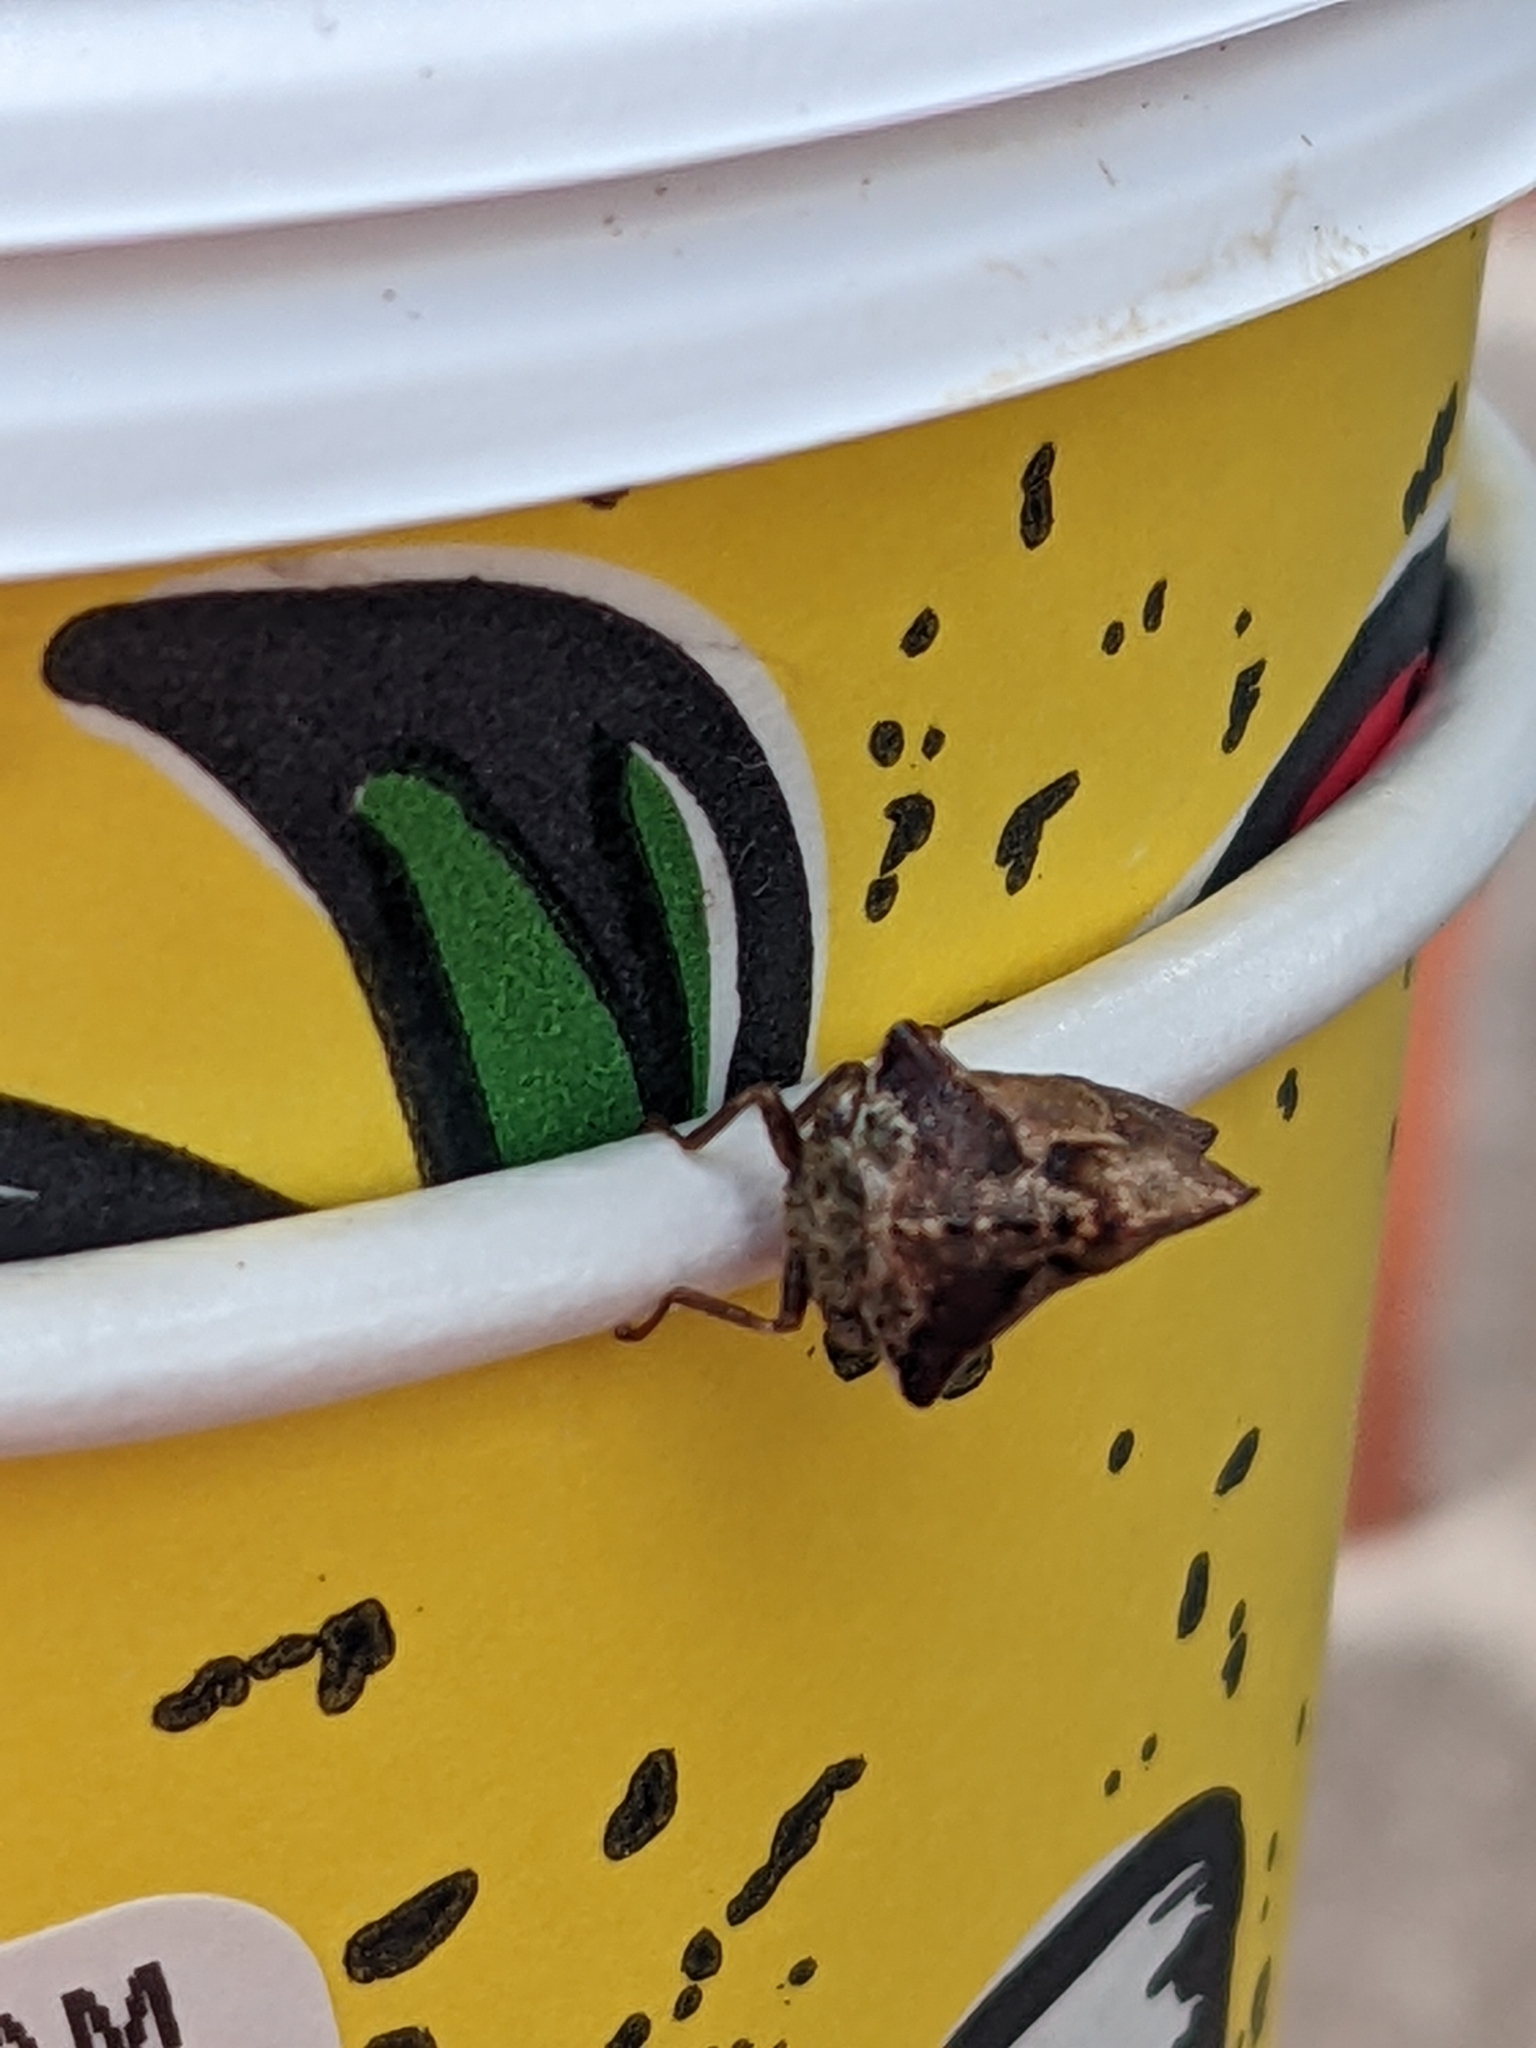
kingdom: Animalia
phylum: Arthropoda
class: Insecta
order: Hemiptera
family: Membracidae
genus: Telamona
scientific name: Telamona ampelopsidis
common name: Virginia creeper treehopper
